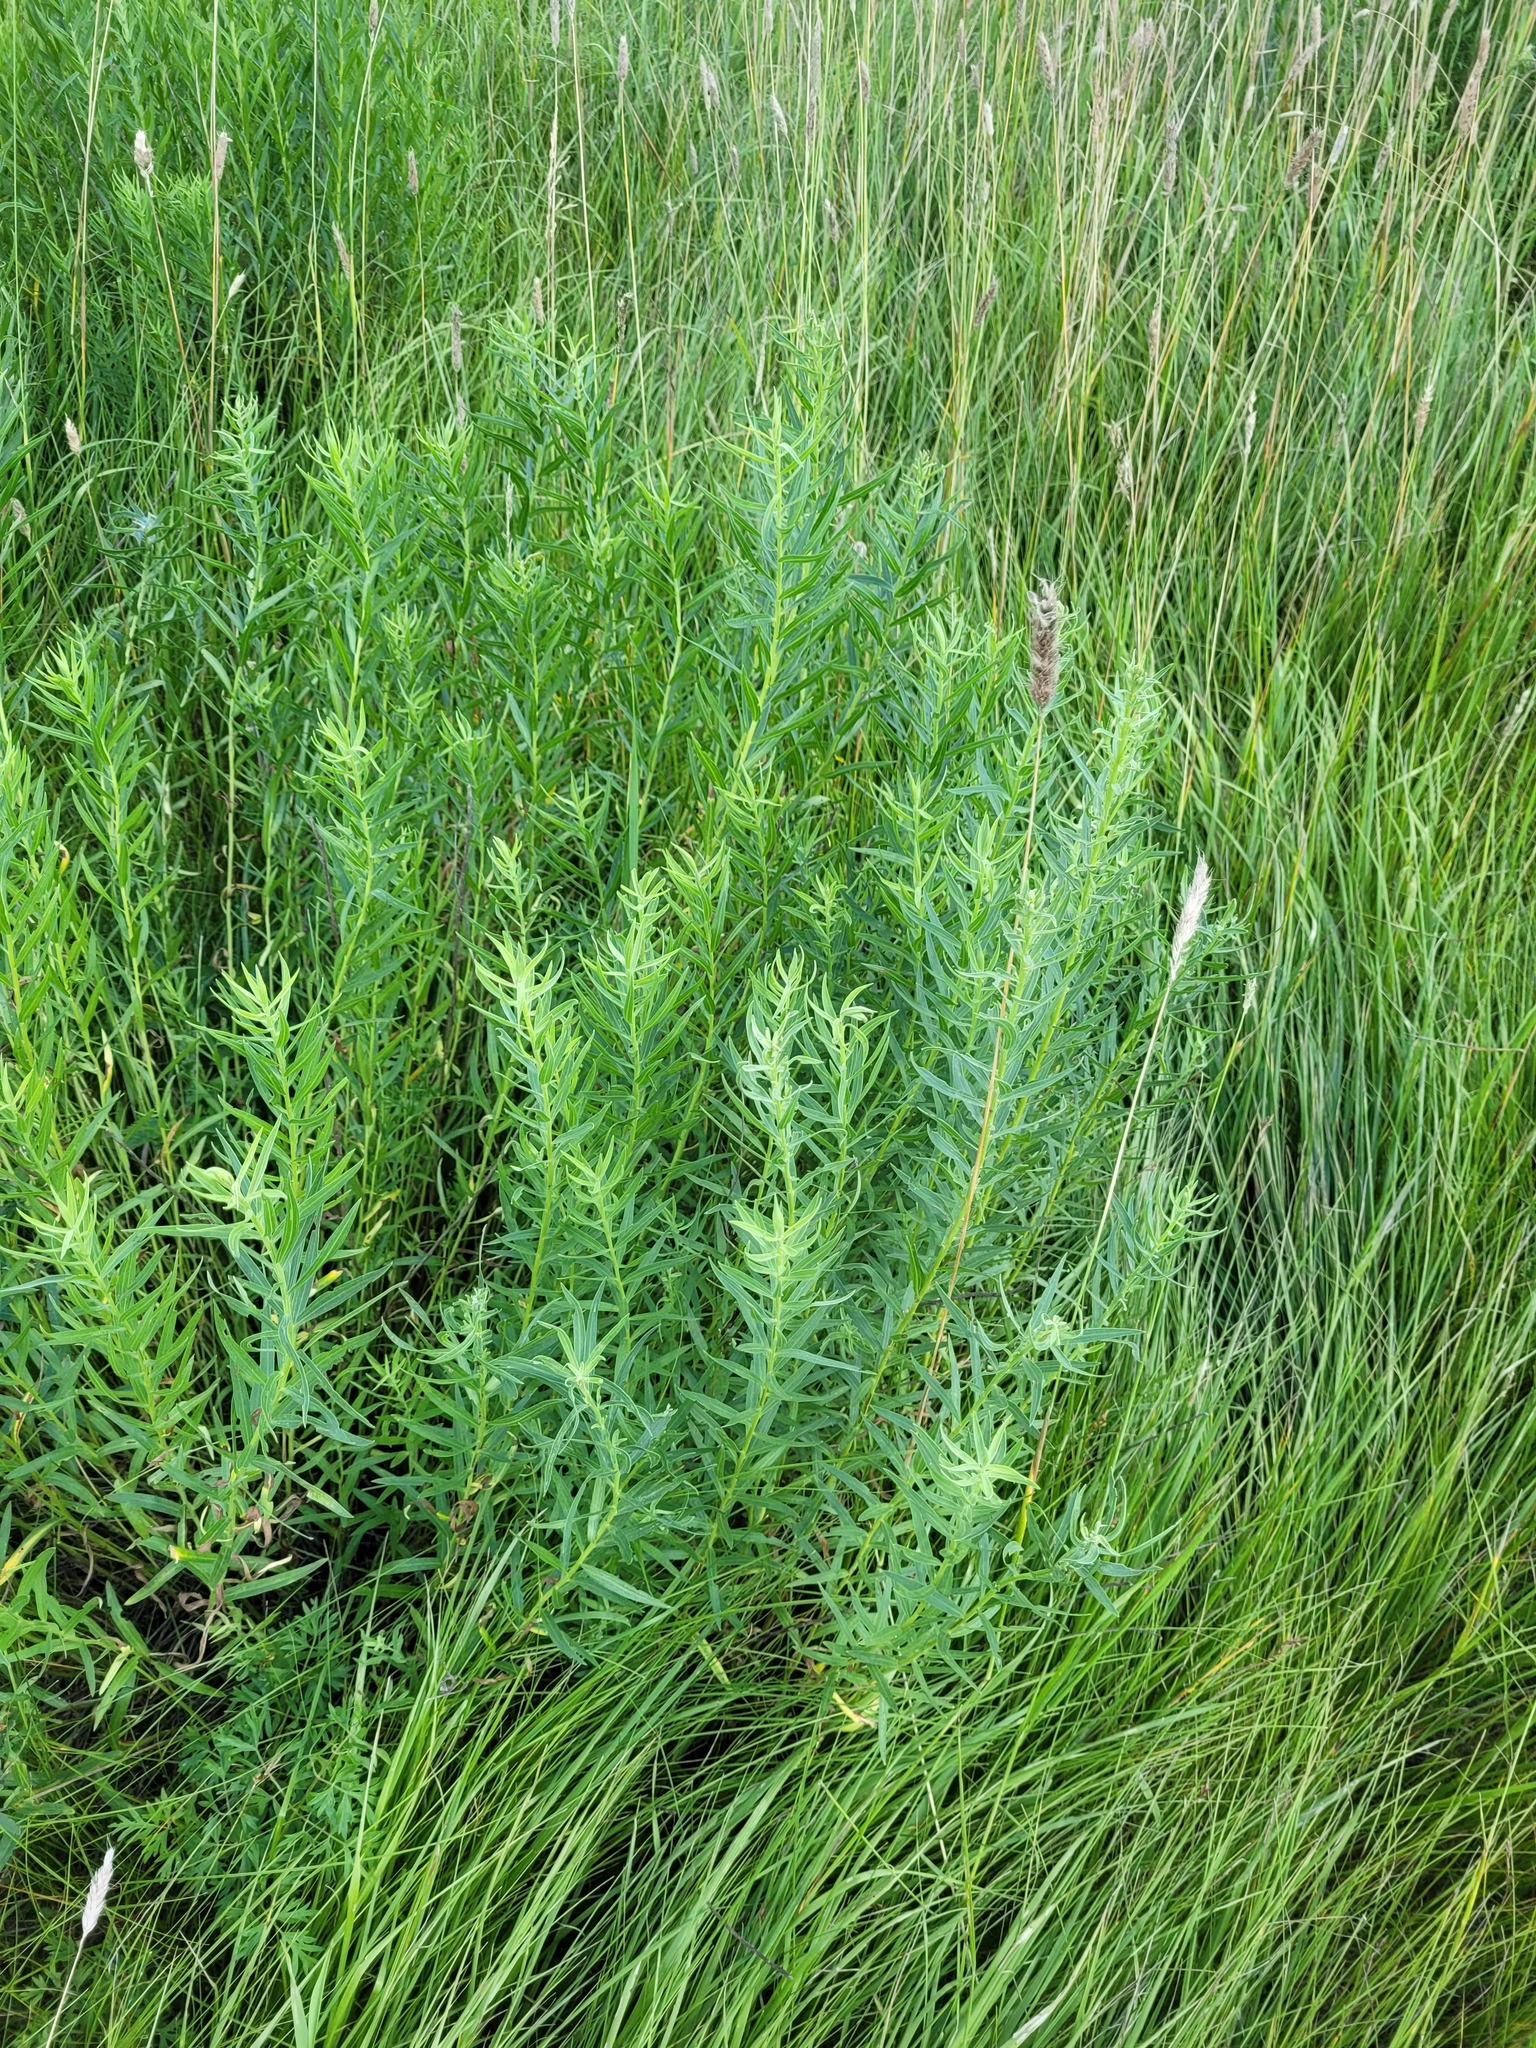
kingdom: Plantae
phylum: Tracheophyta
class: Magnoliopsida
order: Asterales
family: Asteraceae
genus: Galatella
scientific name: Galatella sedifolia
